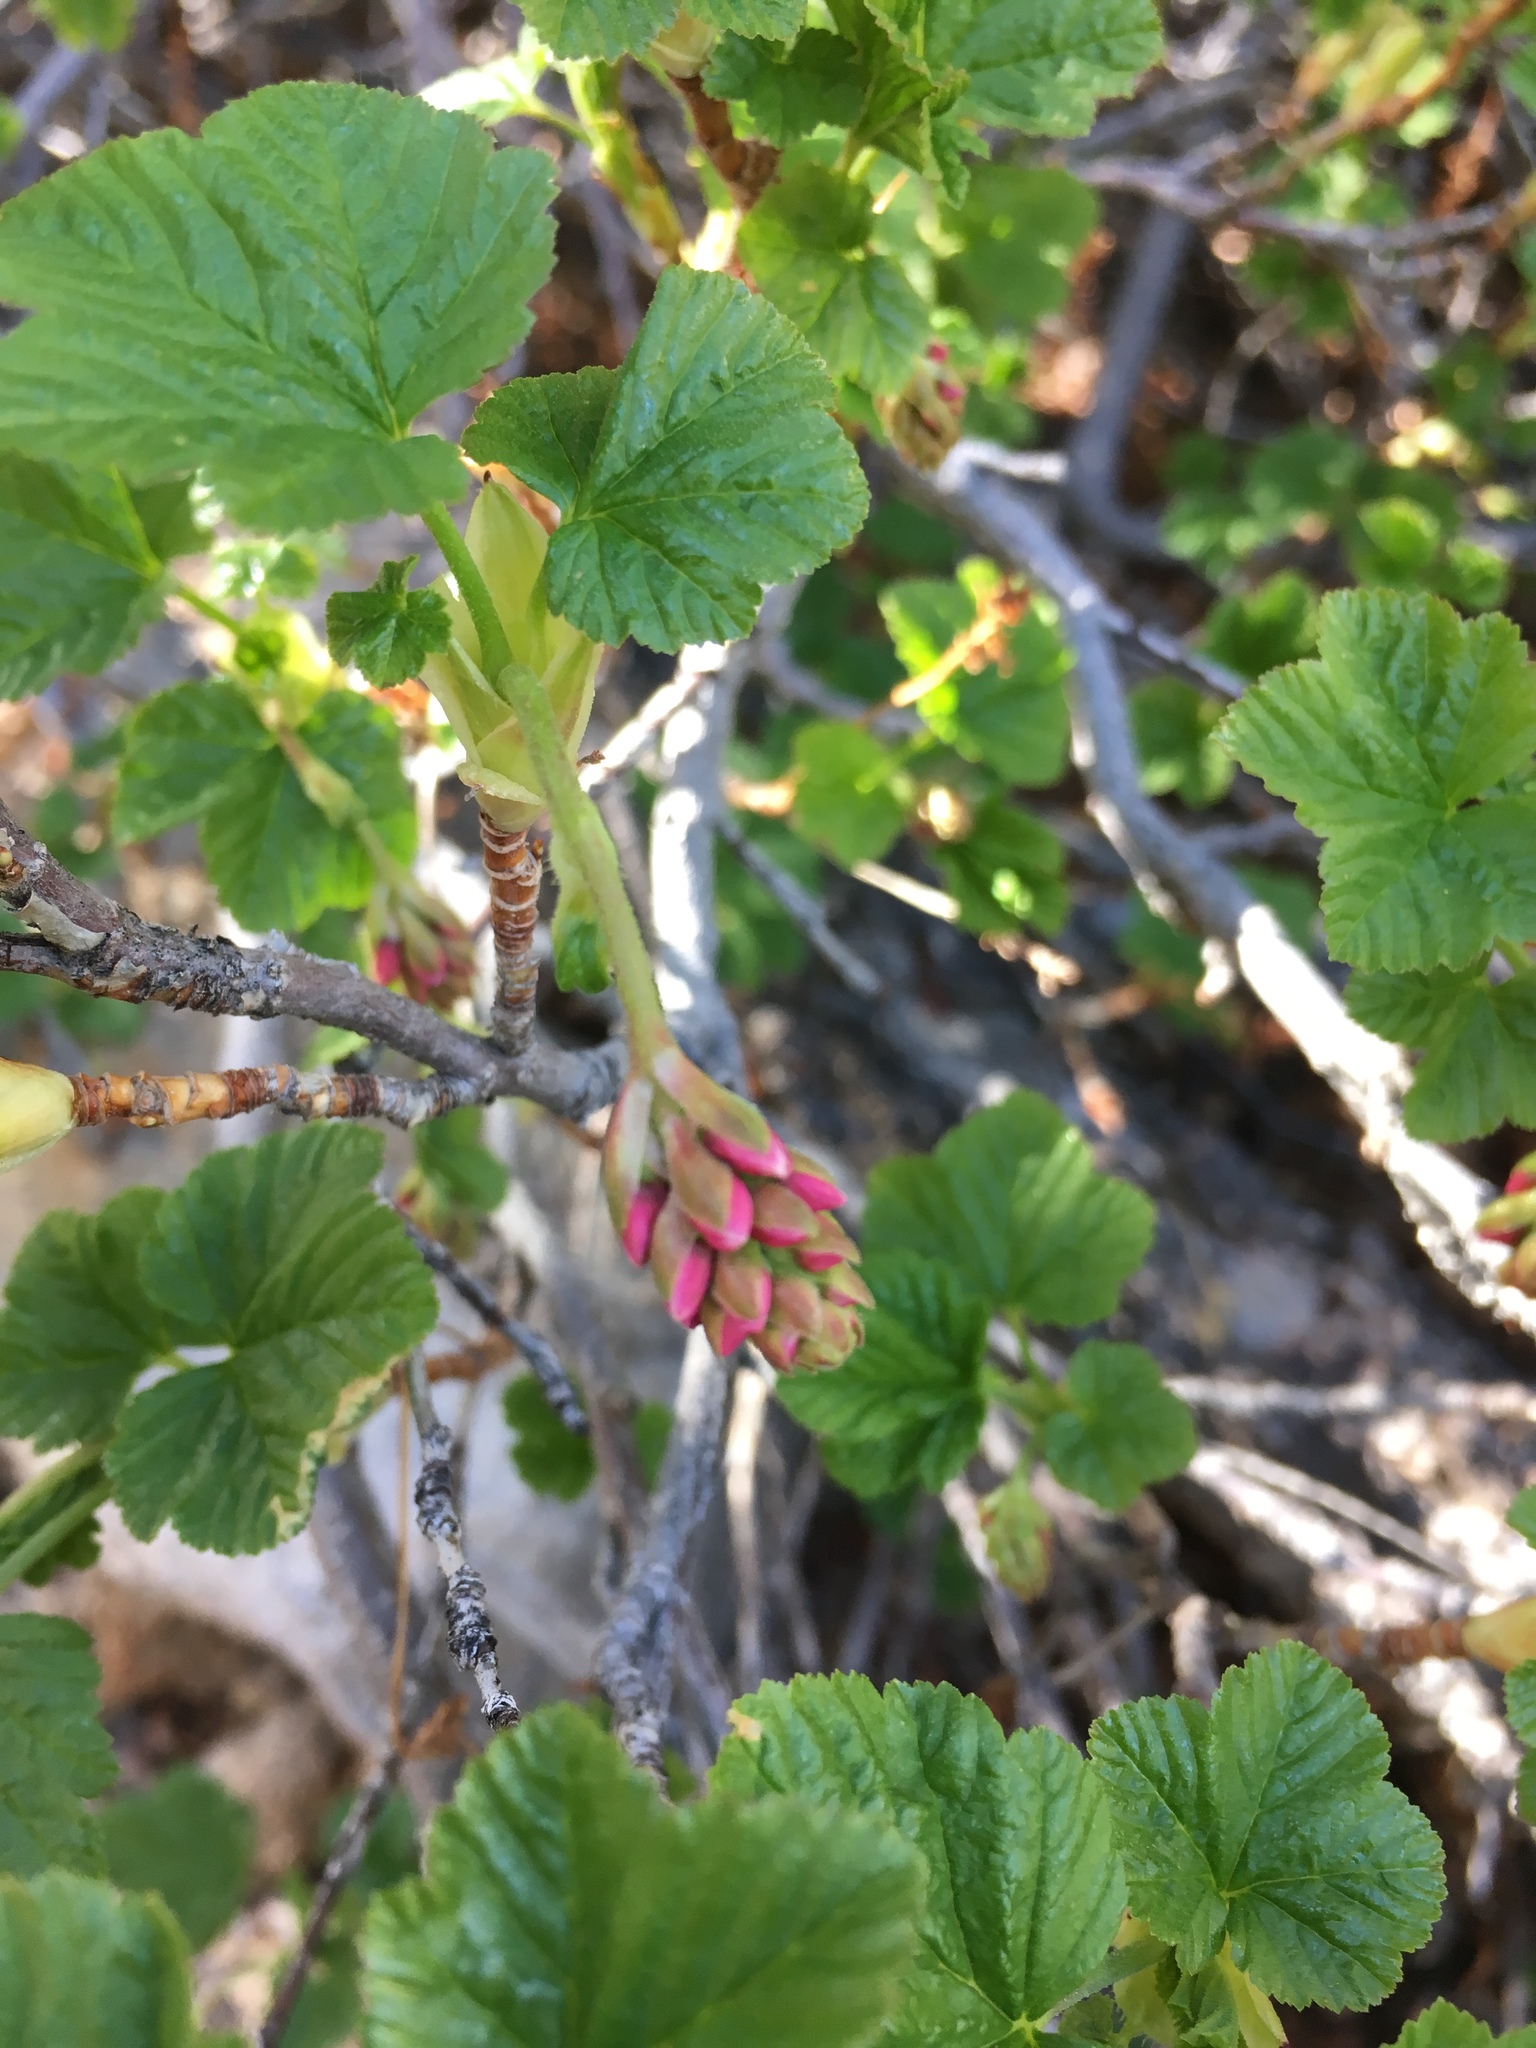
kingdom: Plantae
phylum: Tracheophyta
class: Magnoliopsida
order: Saxifragales
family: Grossulariaceae
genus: Ribes
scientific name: Ribes nevadense
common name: Mountain pink currant
